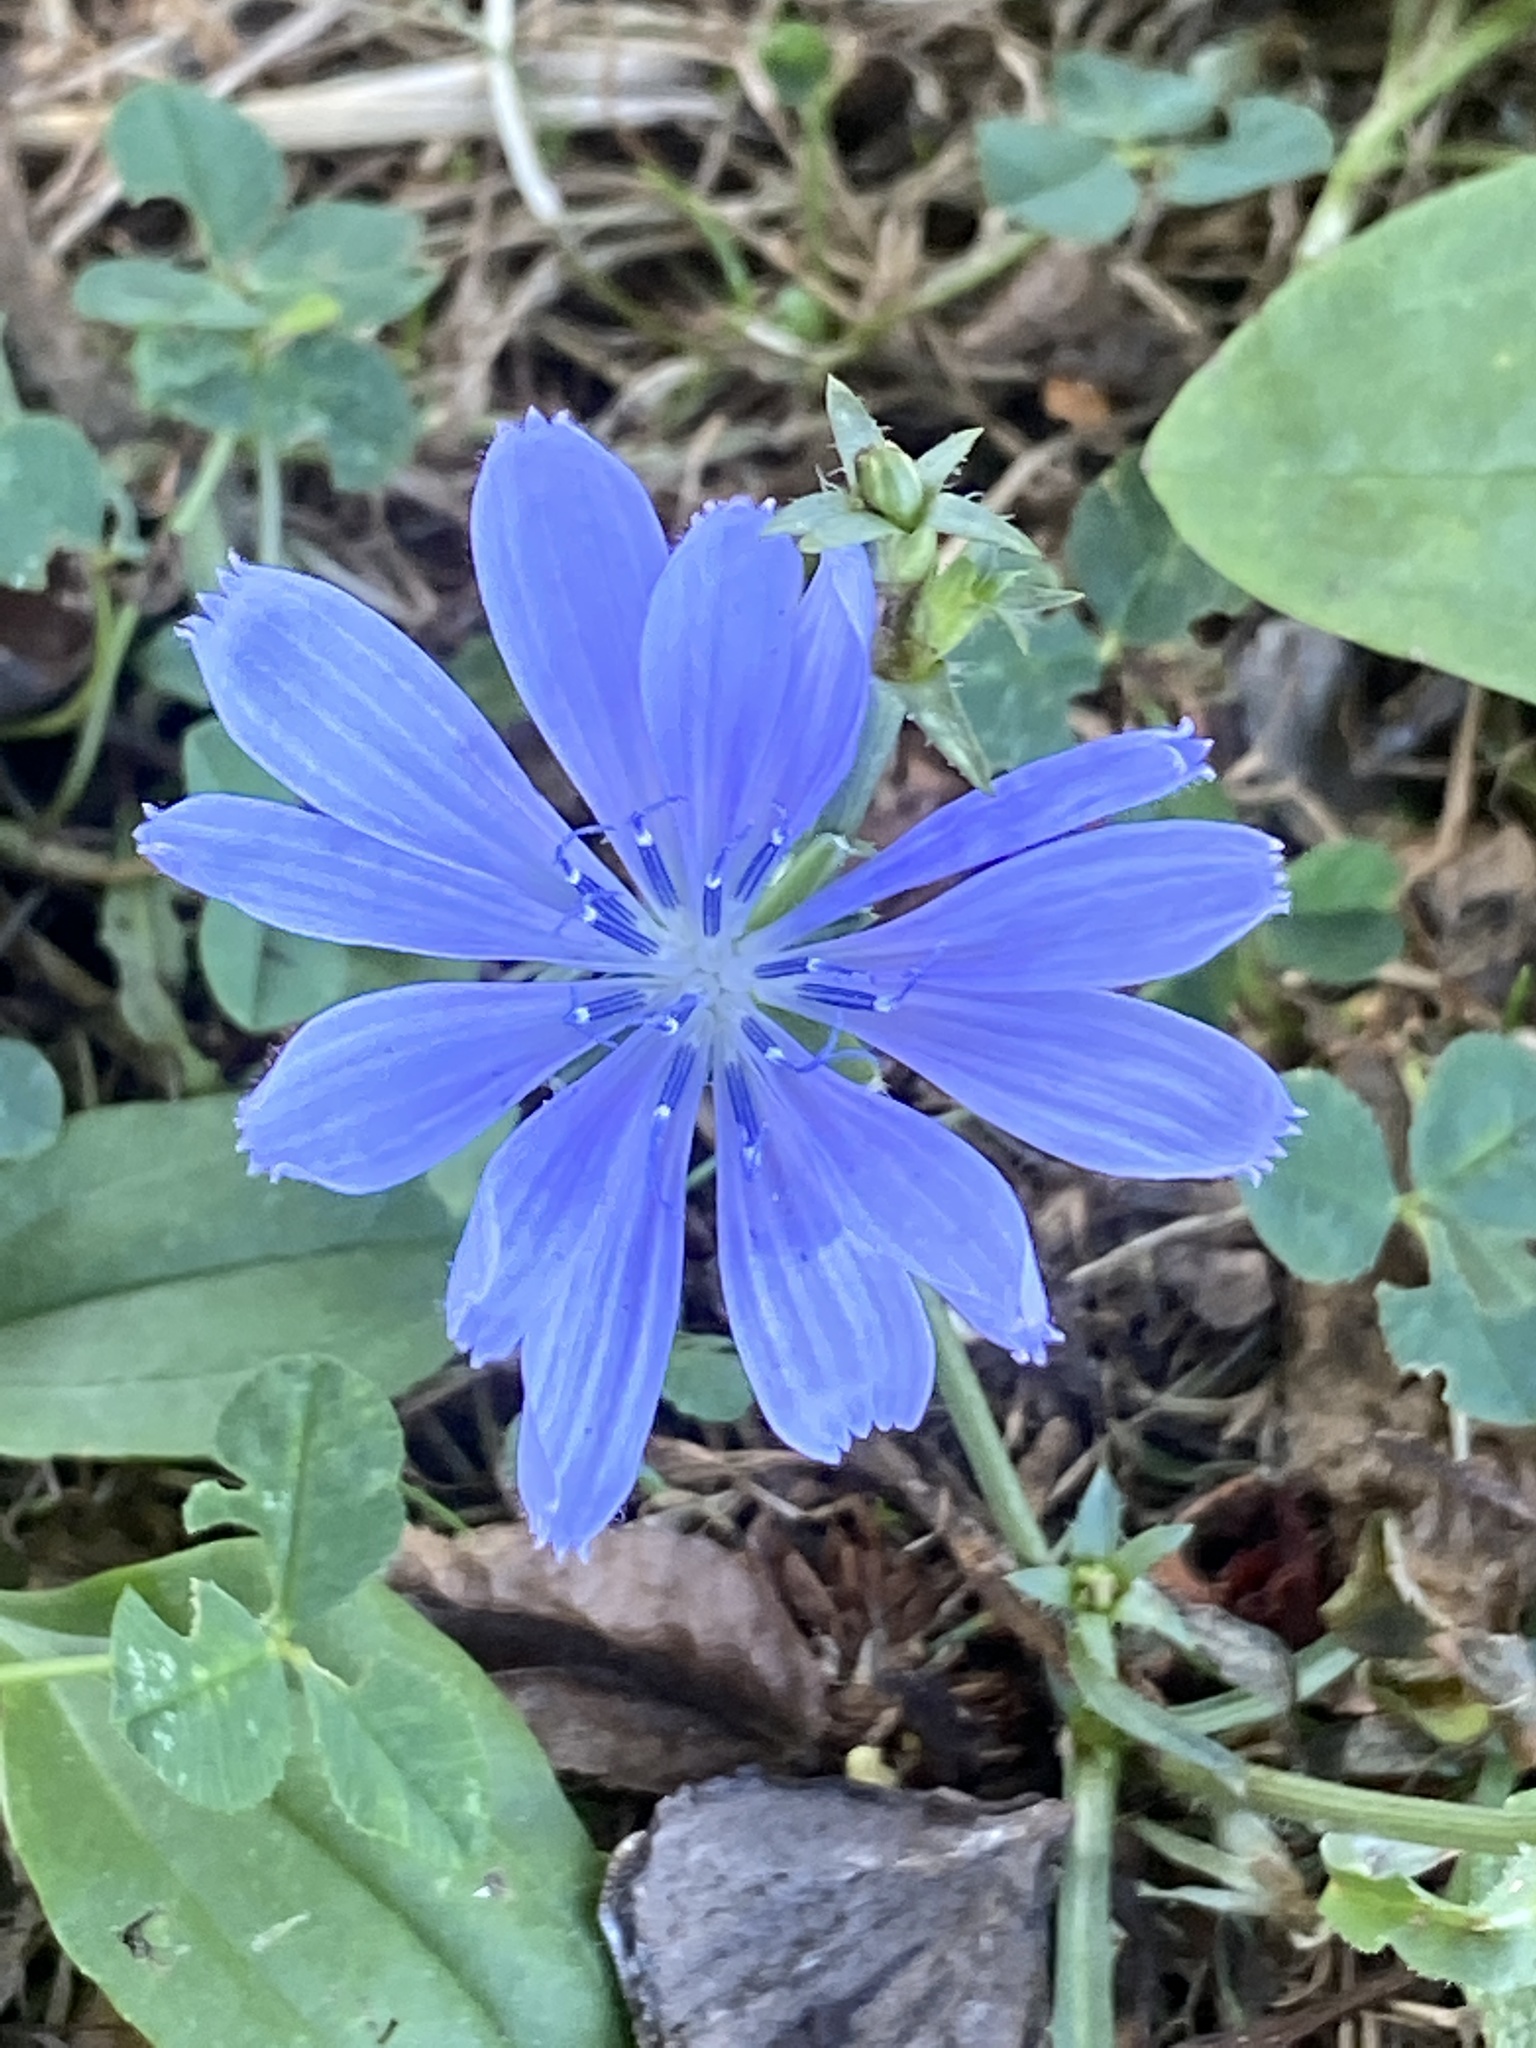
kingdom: Plantae
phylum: Tracheophyta
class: Magnoliopsida
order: Asterales
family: Asteraceae
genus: Cichorium
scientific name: Cichorium intybus
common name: Chicory
